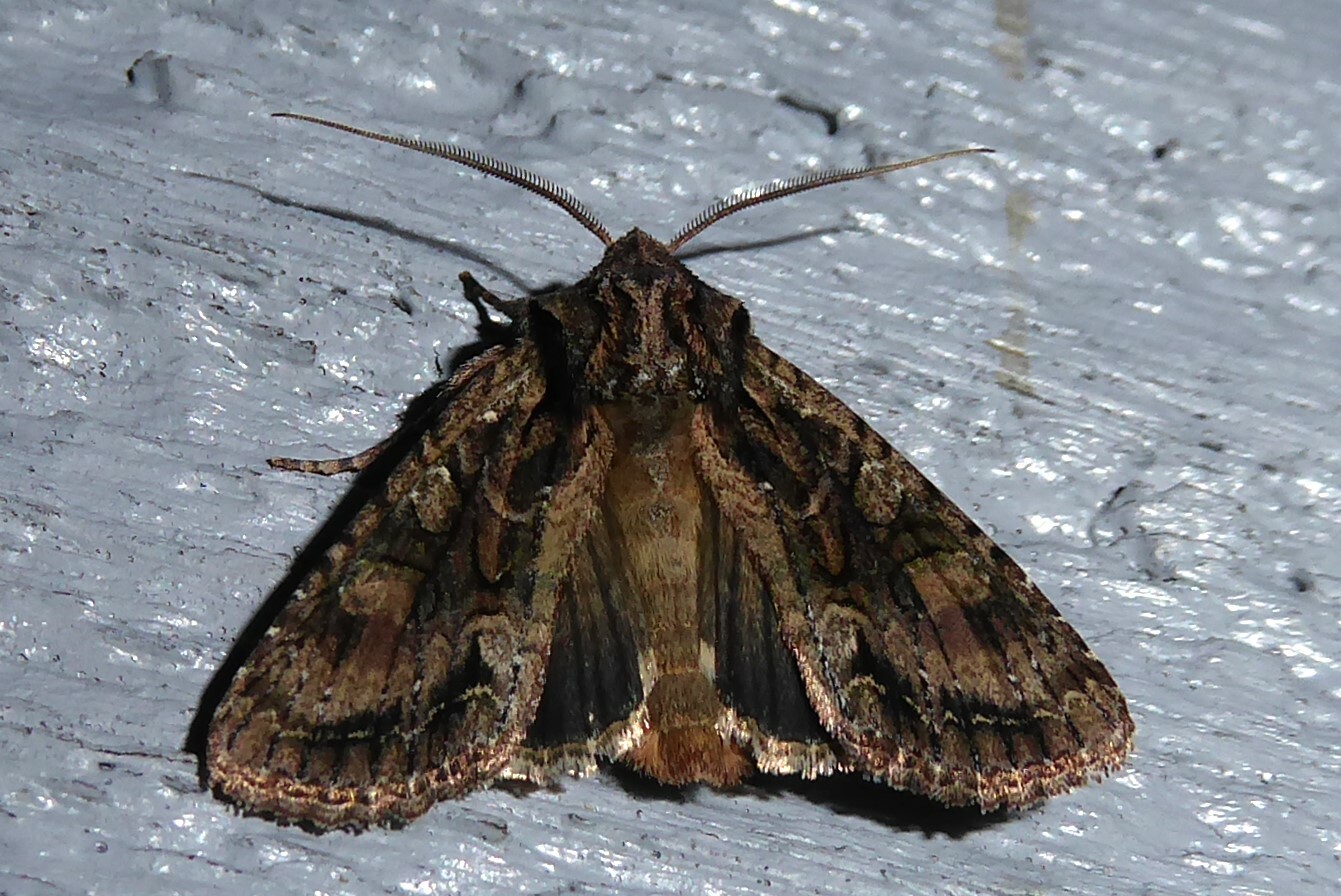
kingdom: Animalia
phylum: Arthropoda
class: Insecta
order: Lepidoptera
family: Noctuidae
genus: Ichneutica
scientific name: Ichneutica mutans
